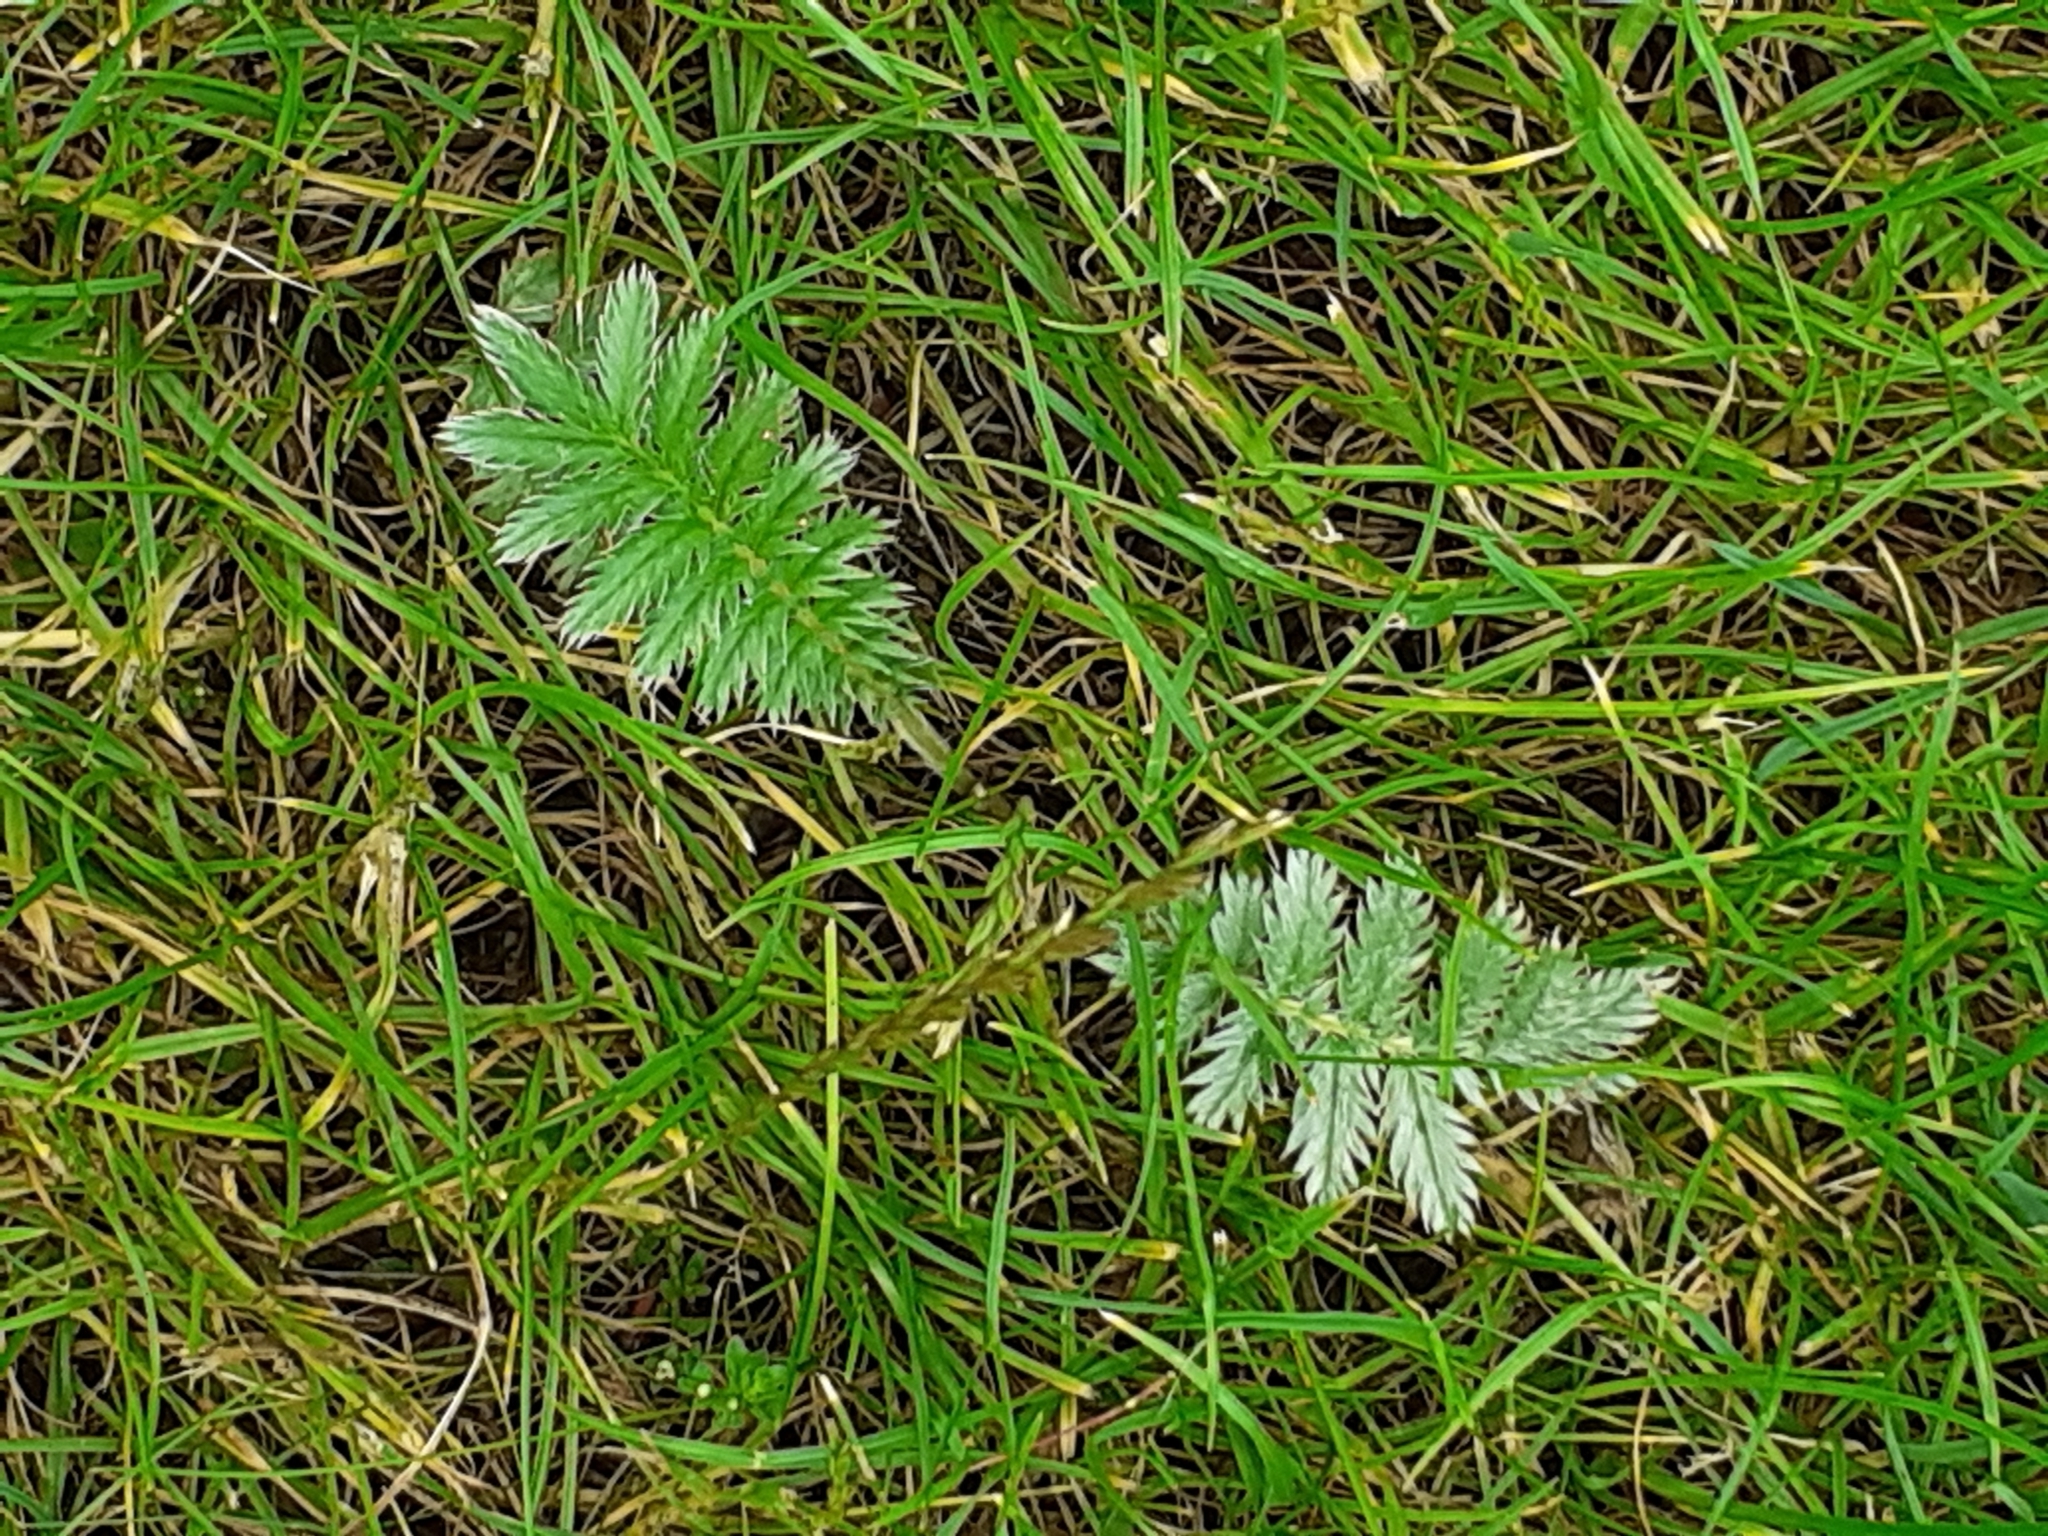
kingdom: Plantae
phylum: Tracheophyta
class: Magnoliopsida
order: Rosales
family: Rosaceae
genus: Argentina
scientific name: Argentina anserina
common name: Common silverweed
